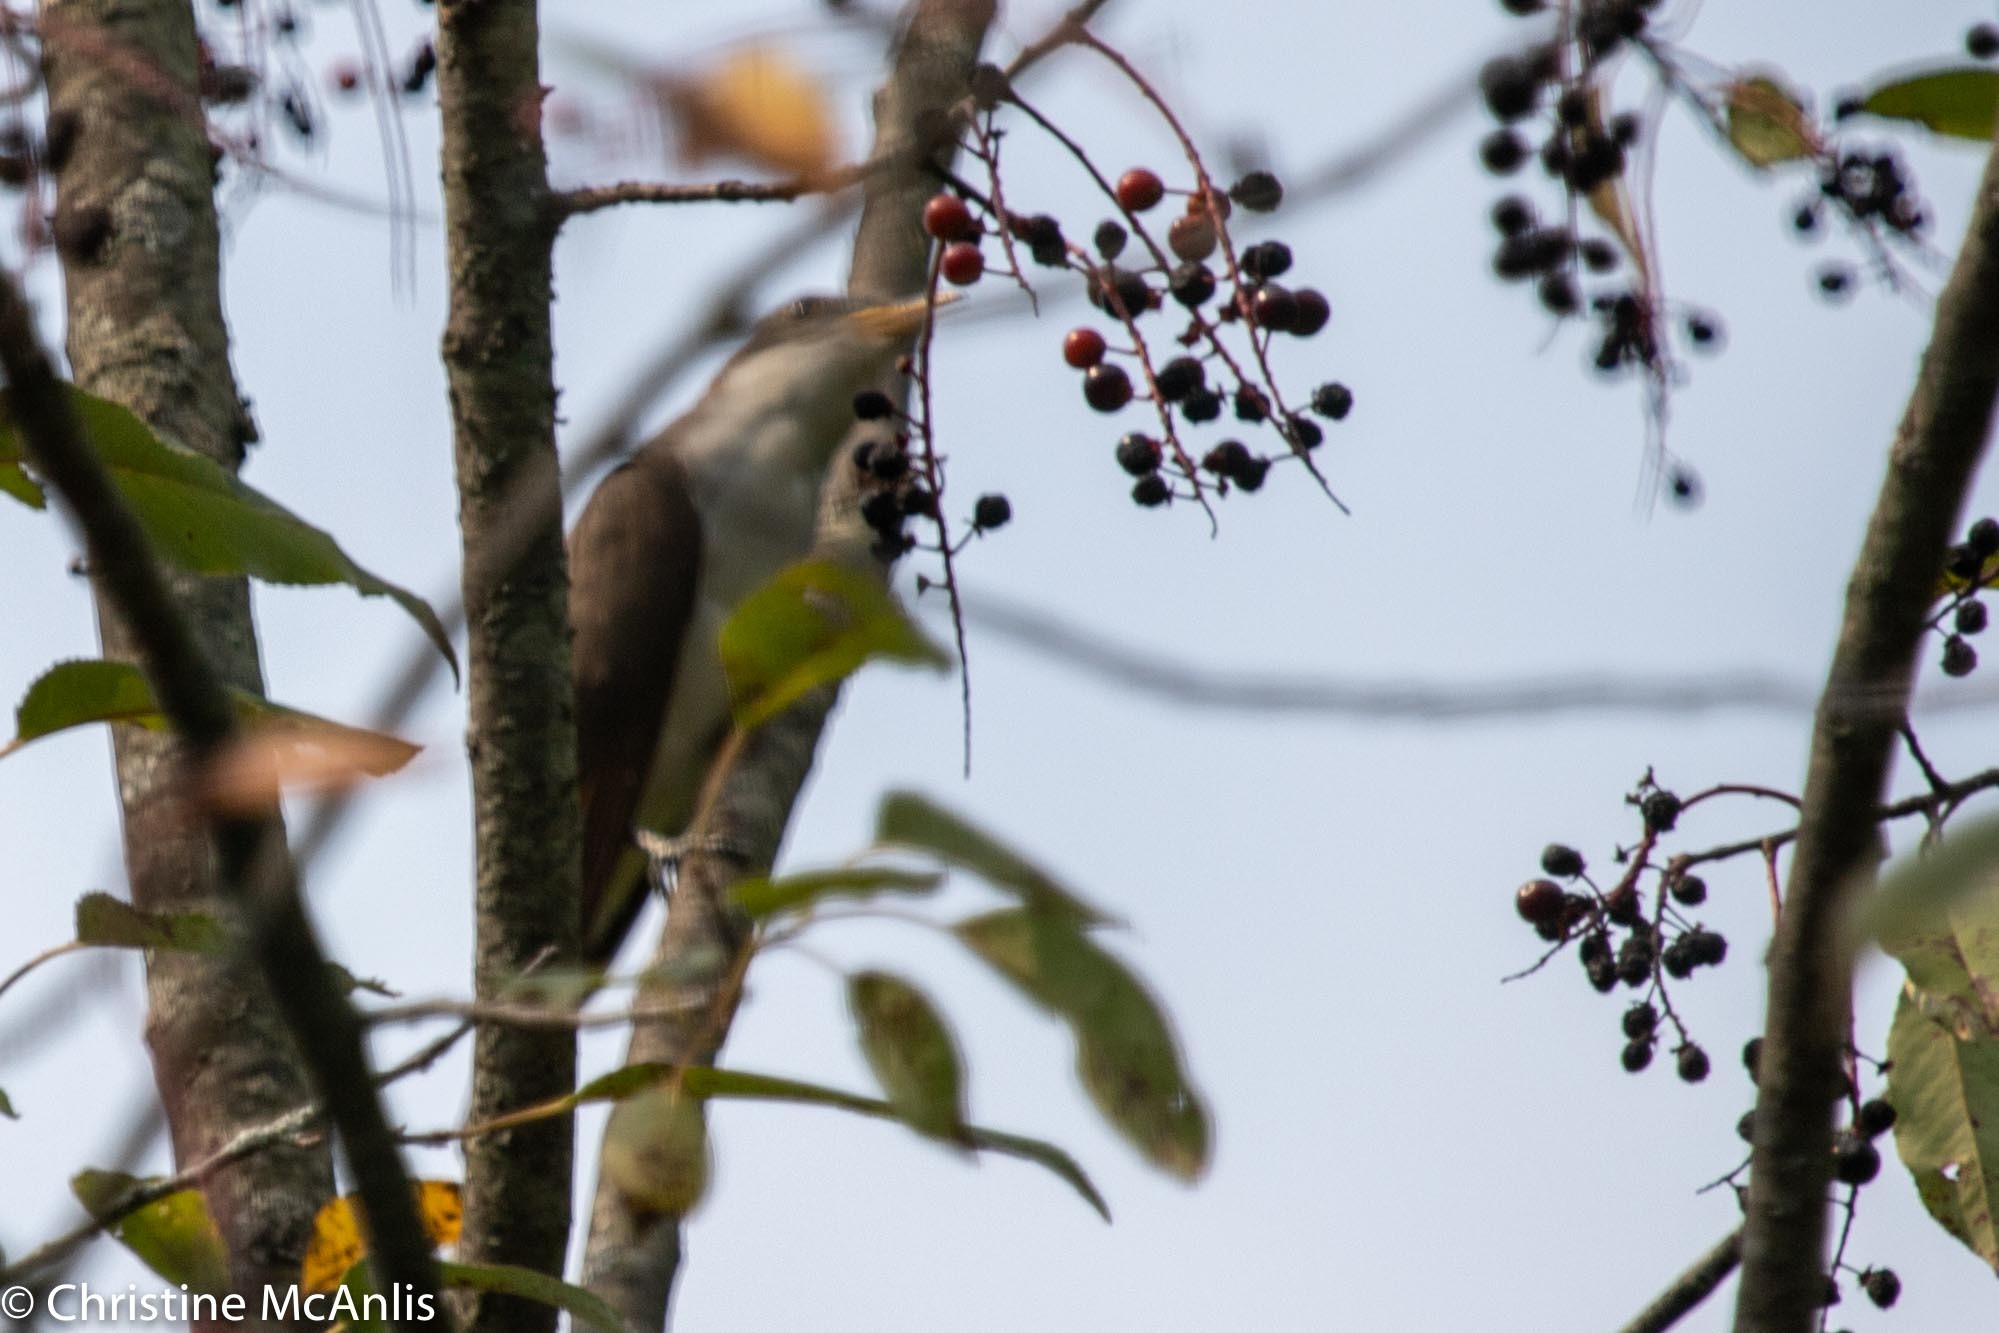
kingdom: Animalia
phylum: Chordata
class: Aves
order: Cuculiformes
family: Cuculidae
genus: Coccyzus
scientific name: Coccyzus americanus
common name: Yellow-billed cuckoo
